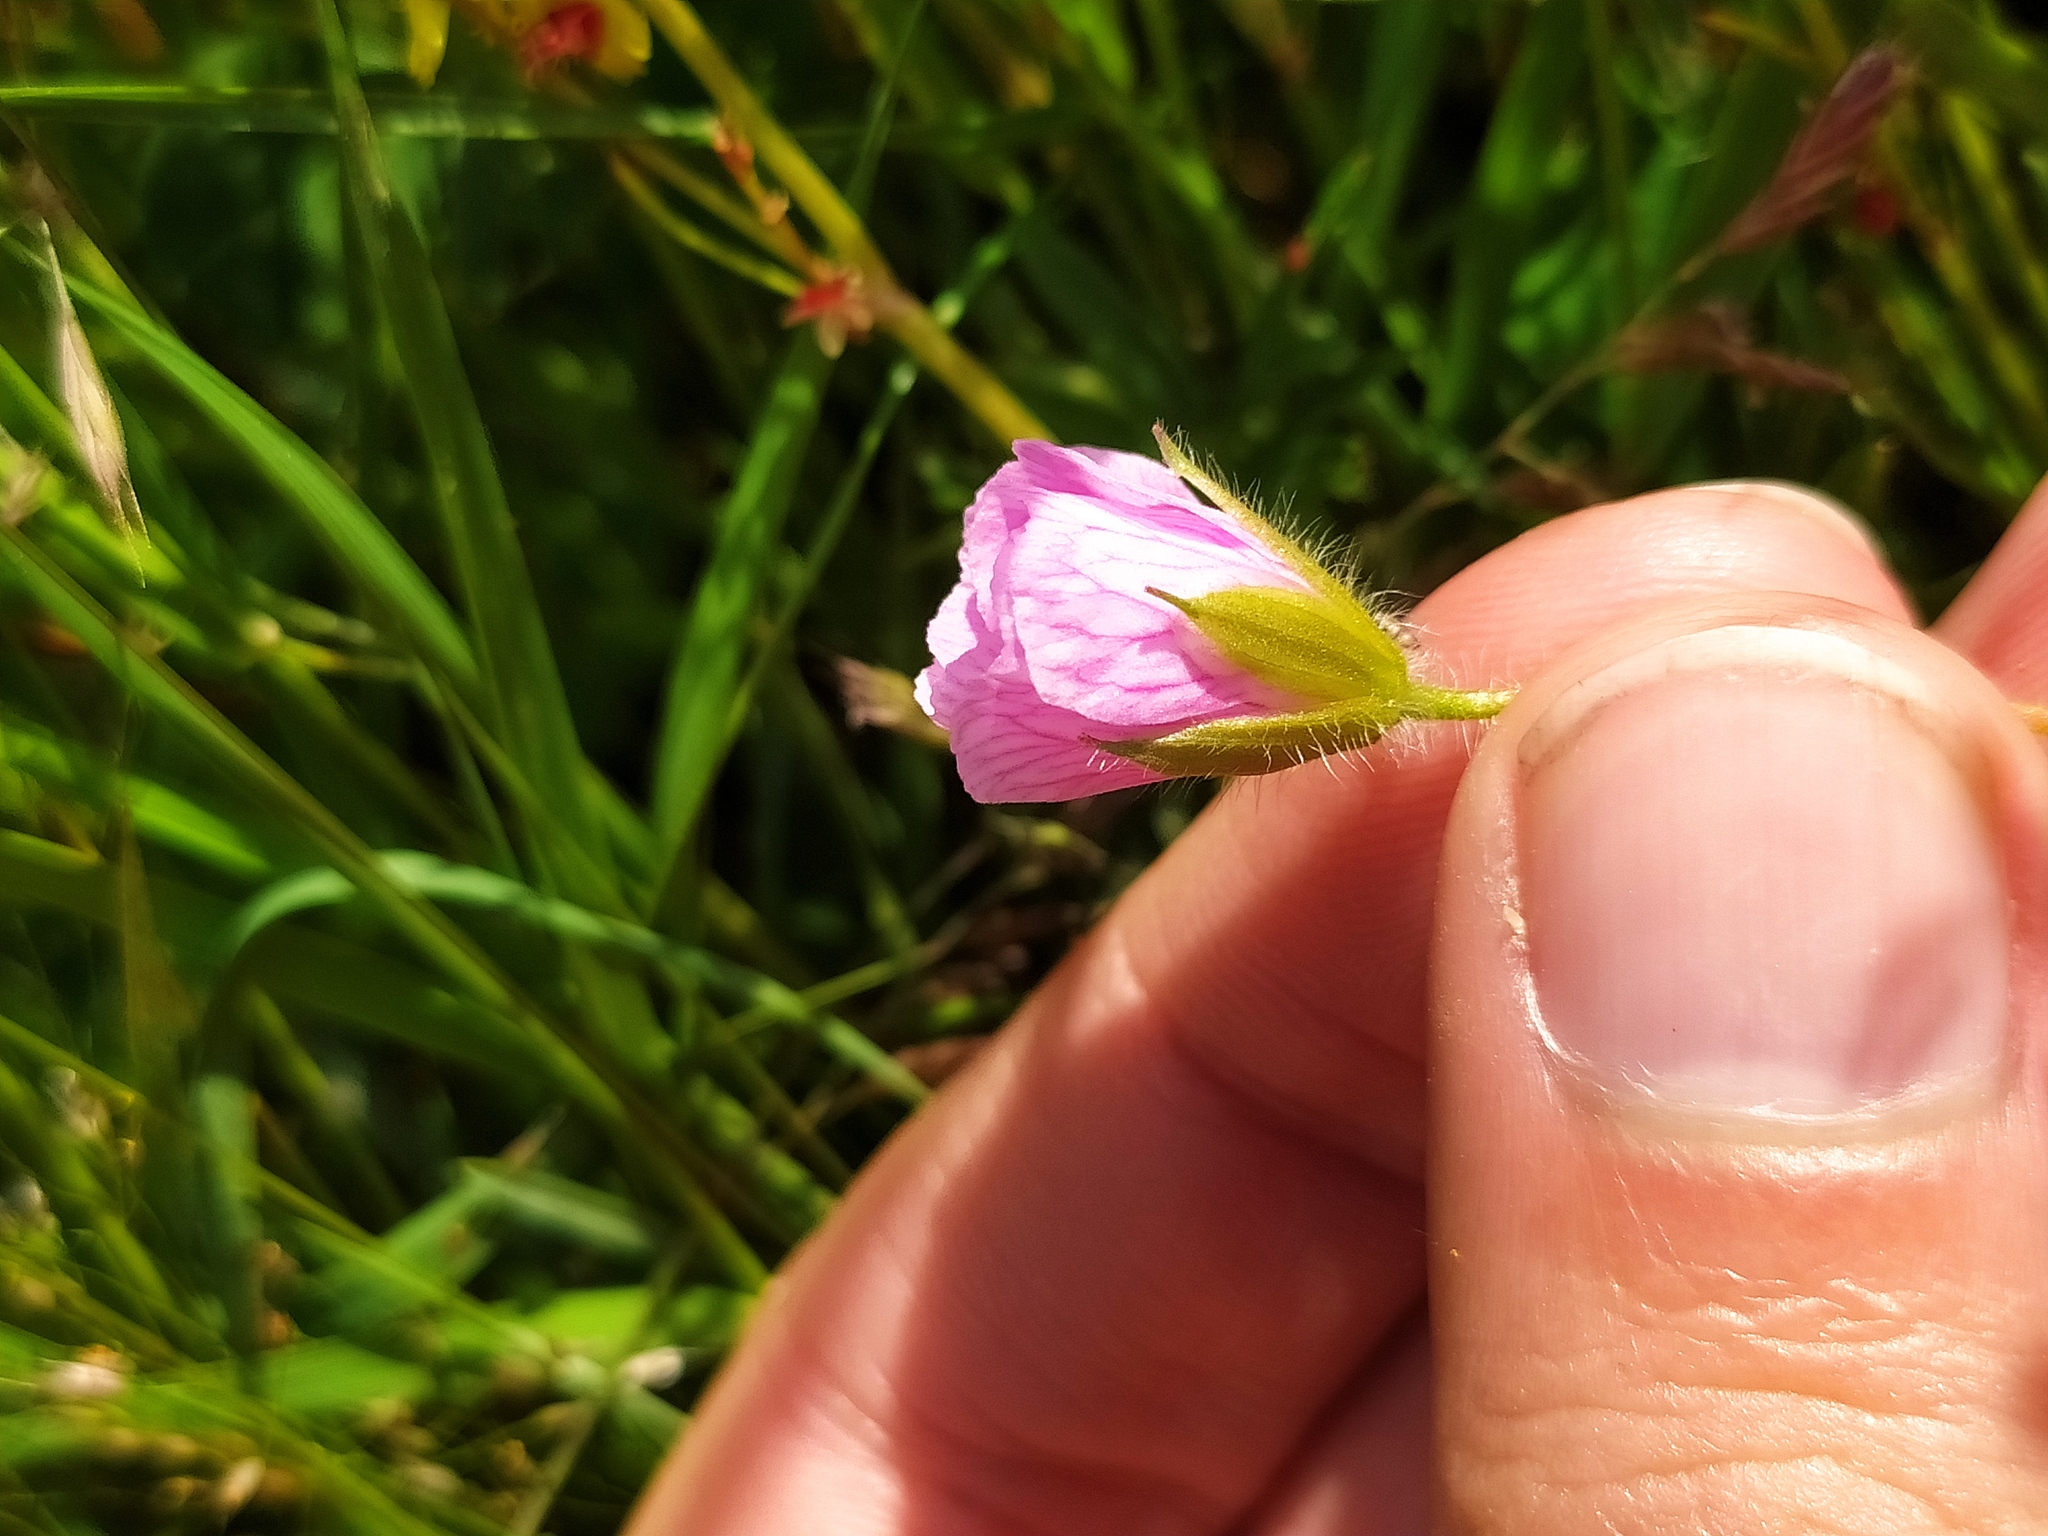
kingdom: Plantae
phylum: Tracheophyta
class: Magnoliopsida
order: Geraniales
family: Geraniaceae
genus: Geranium
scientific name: Geranium sanguineum
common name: Bloody crane's-bill
